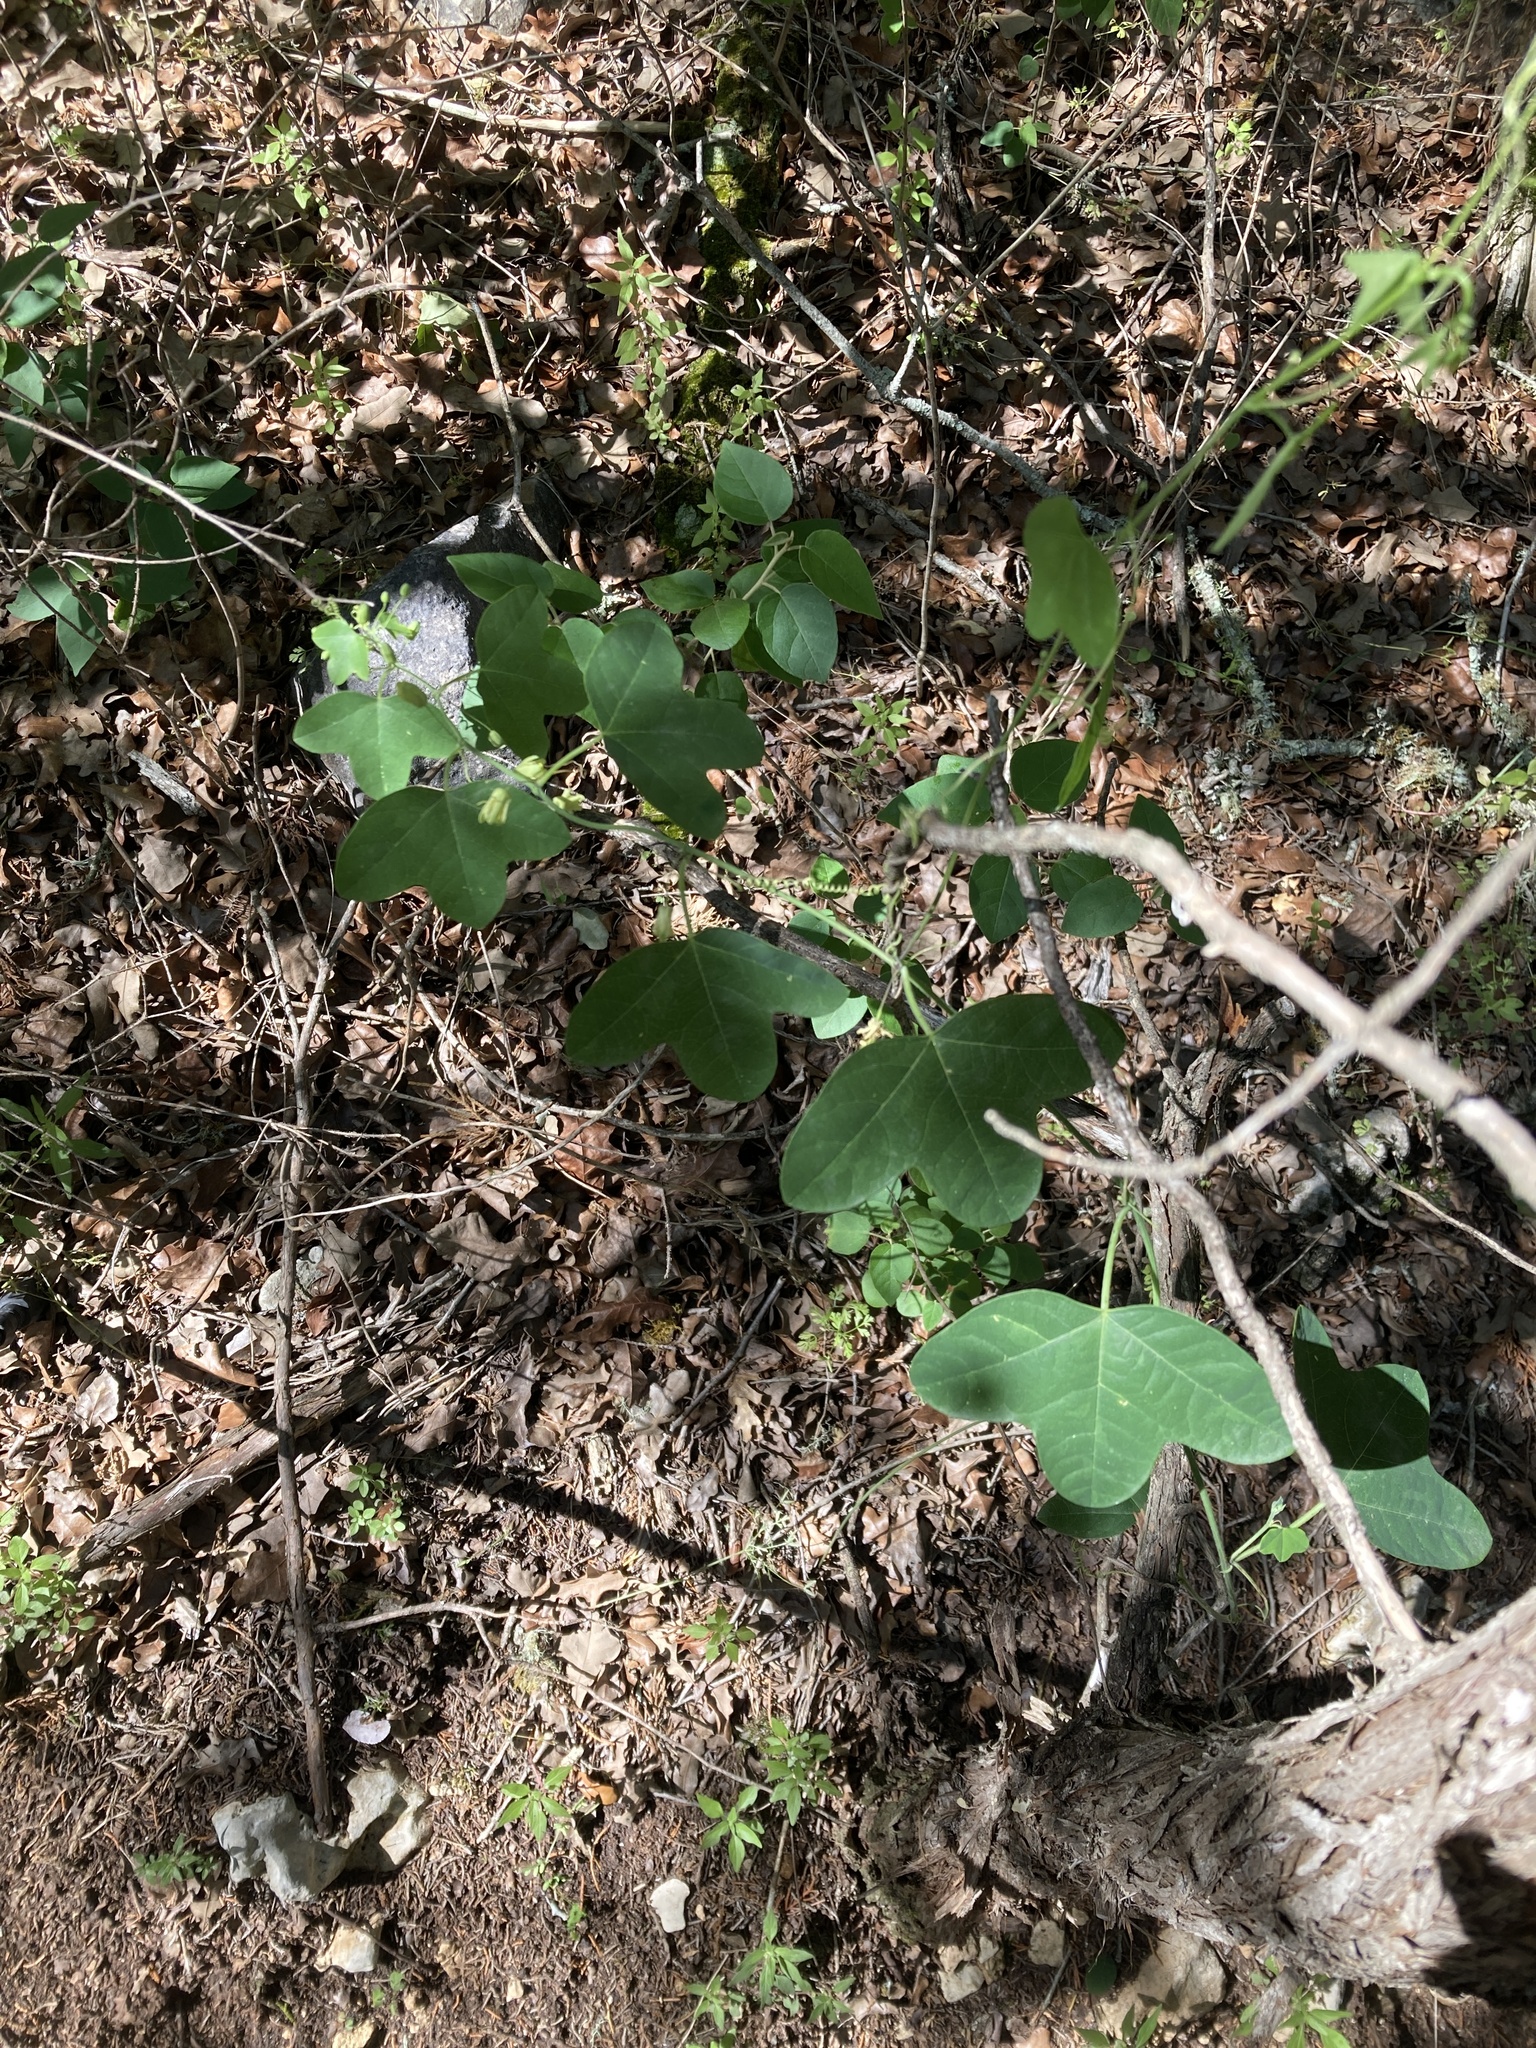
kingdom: Plantae
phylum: Tracheophyta
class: Magnoliopsida
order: Malpighiales
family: Passifloraceae
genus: Passiflora
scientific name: Passiflora lutea
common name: Yellow passionflower
